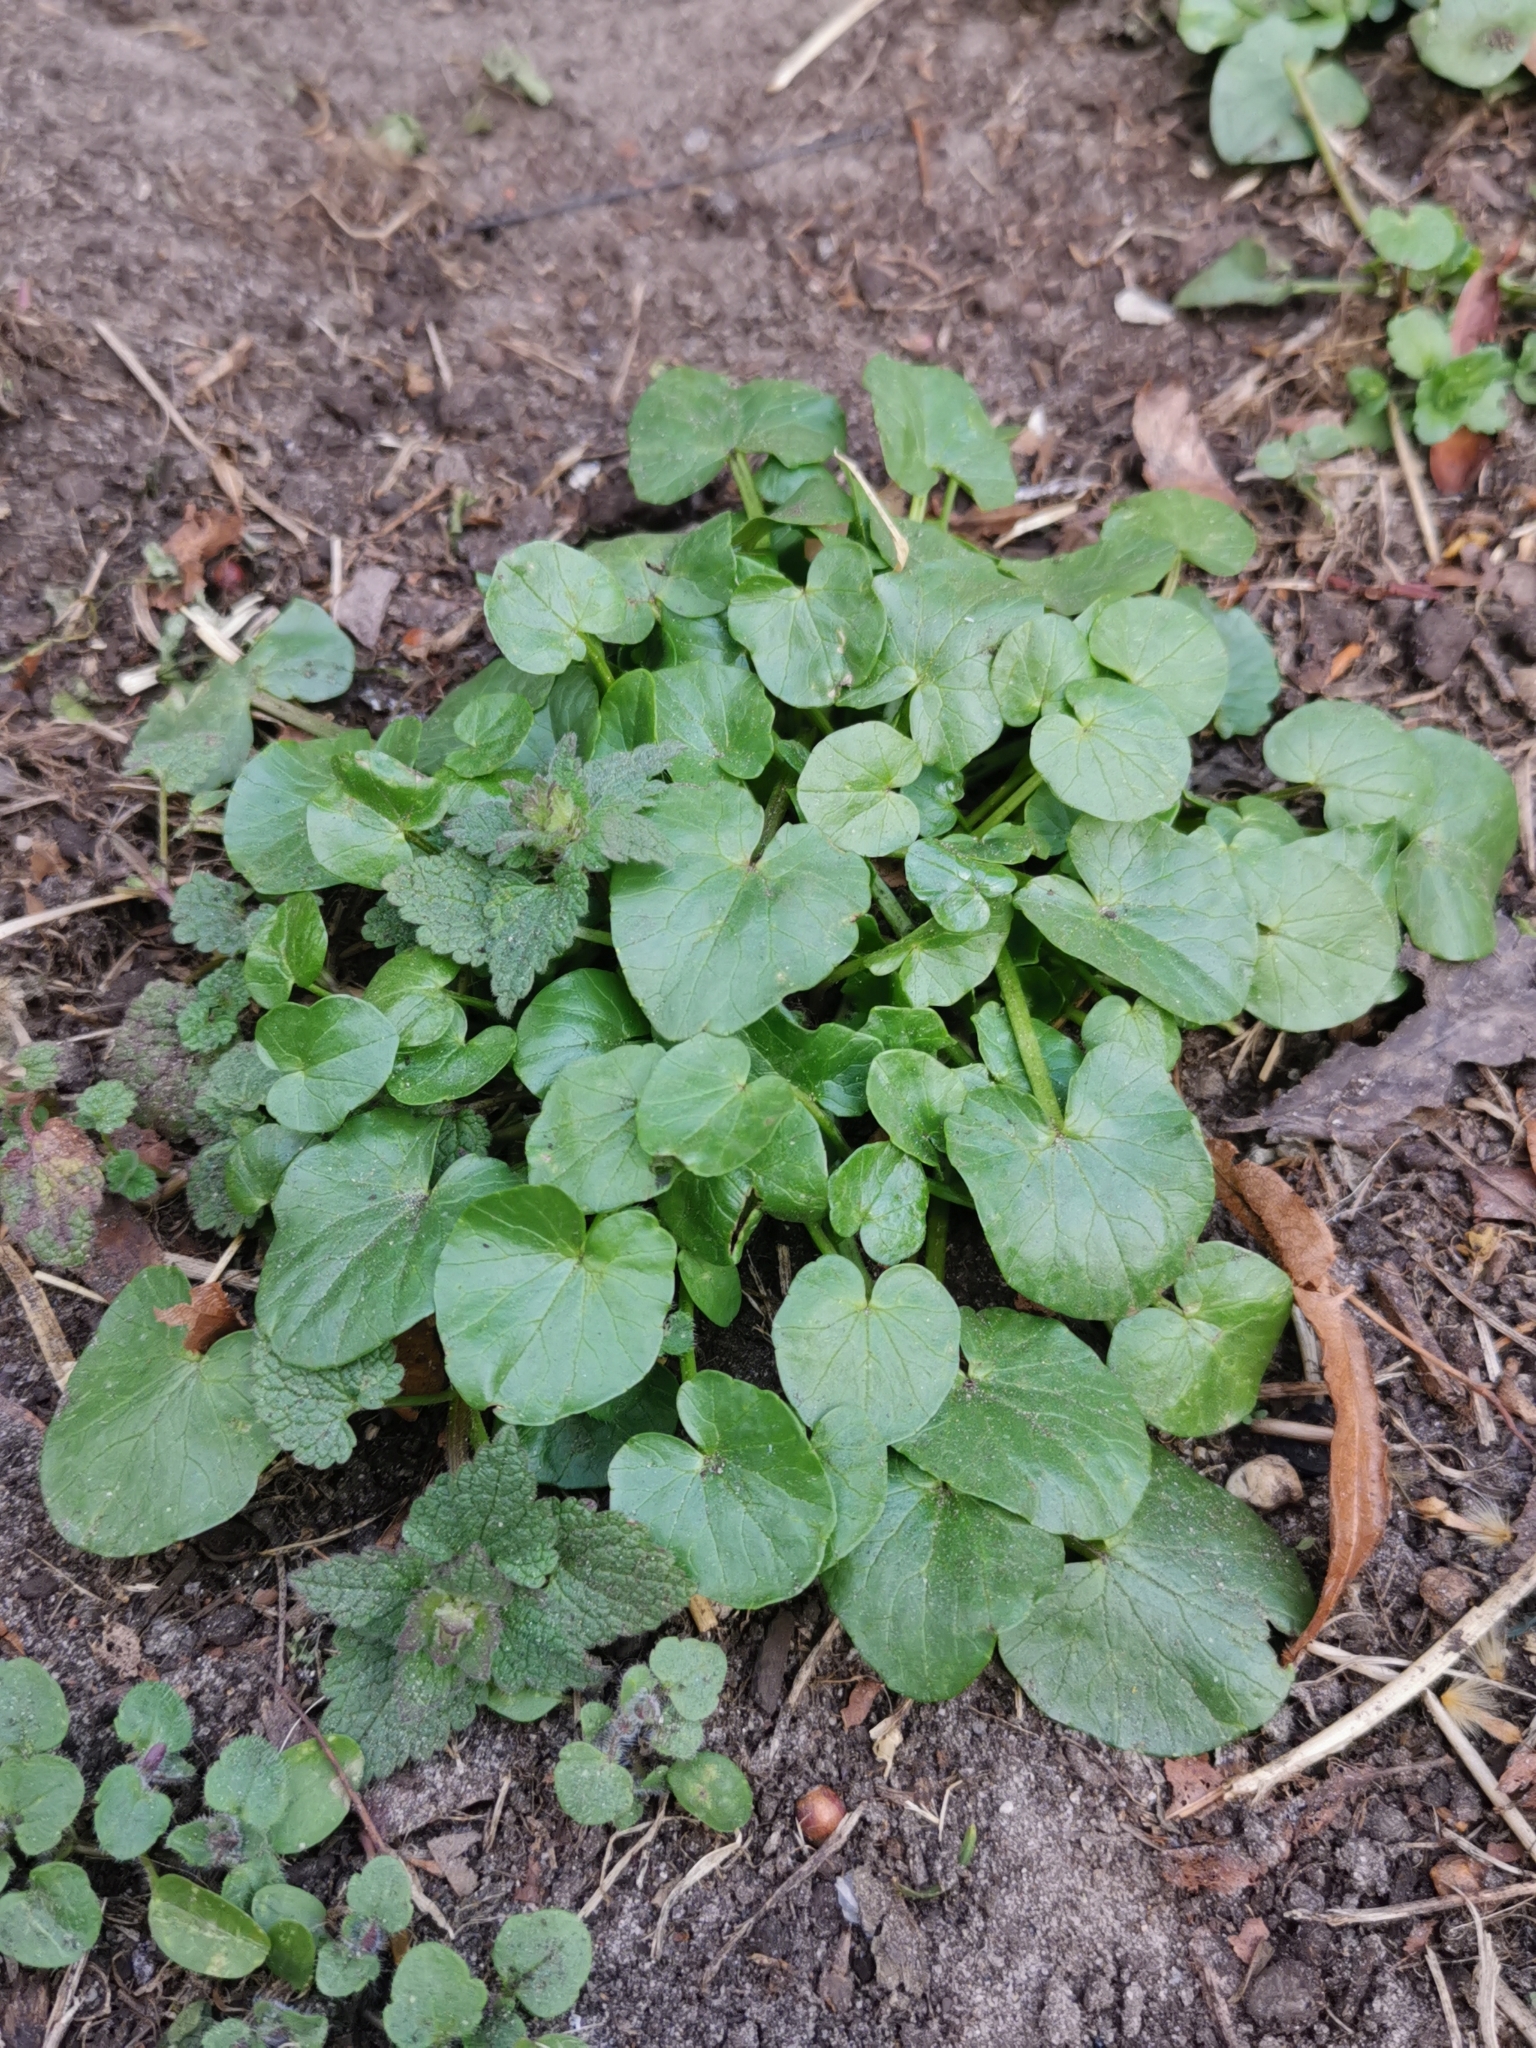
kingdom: Plantae
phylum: Tracheophyta
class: Magnoliopsida
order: Ranunculales
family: Ranunculaceae
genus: Ficaria
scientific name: Ficaria verna
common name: Lesser celandine
